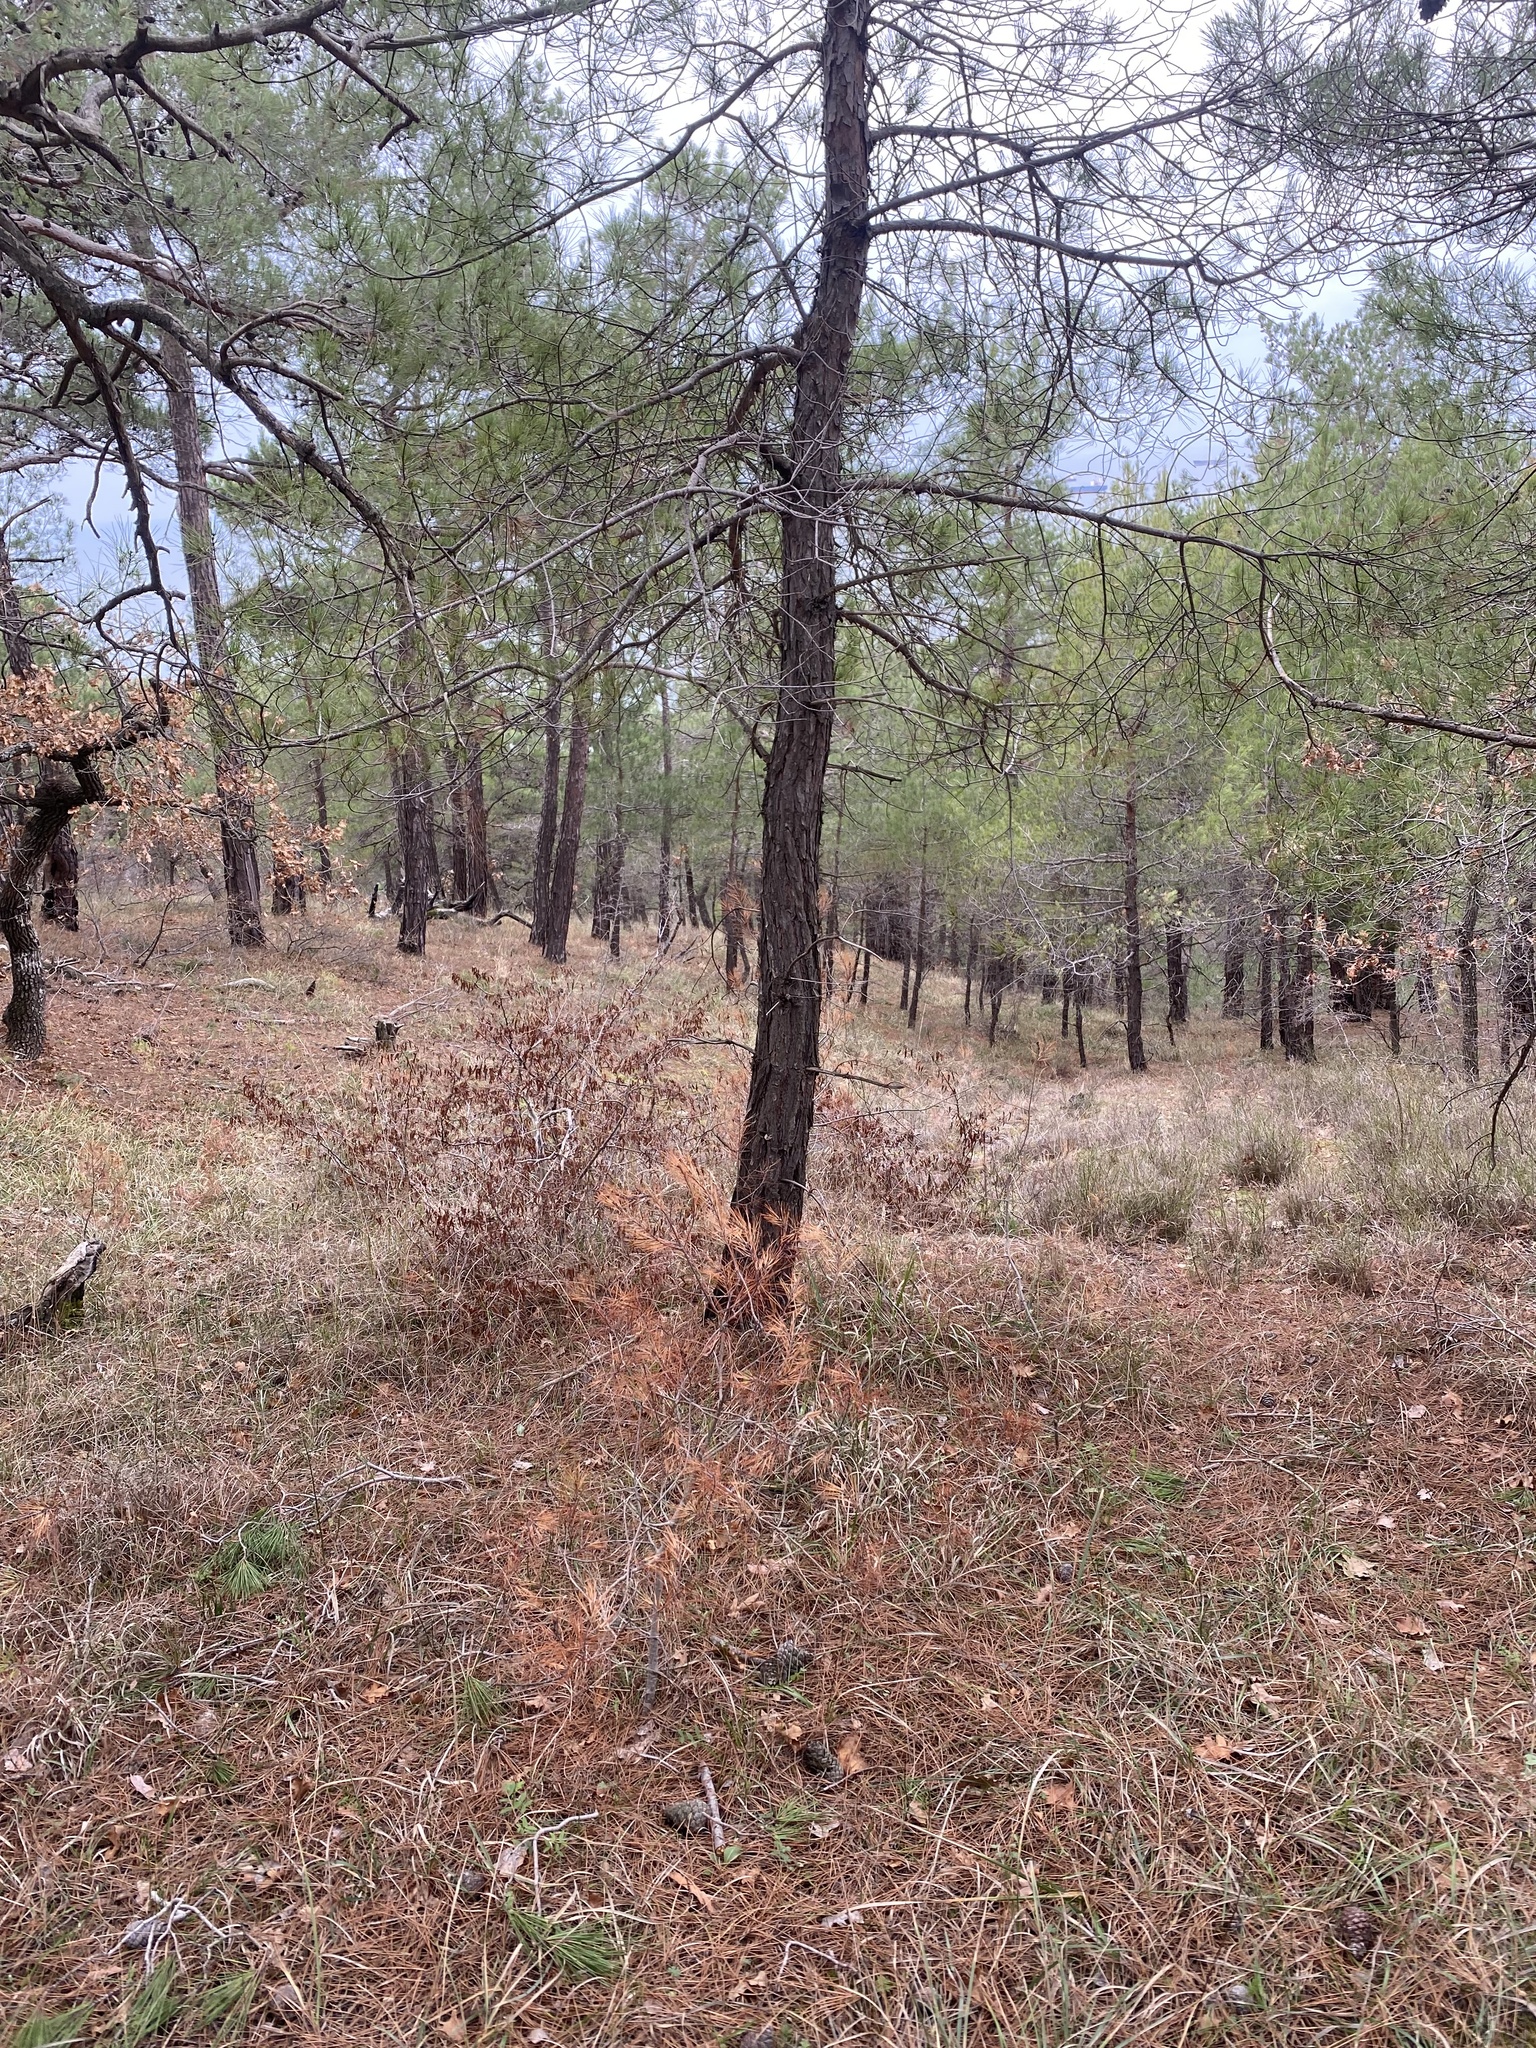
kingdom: Plantae
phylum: Tracheophyta
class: Pinopsida
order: Pinales
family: Pinaceae
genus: Pinus
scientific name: Pinus brutia
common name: Turkish pine
